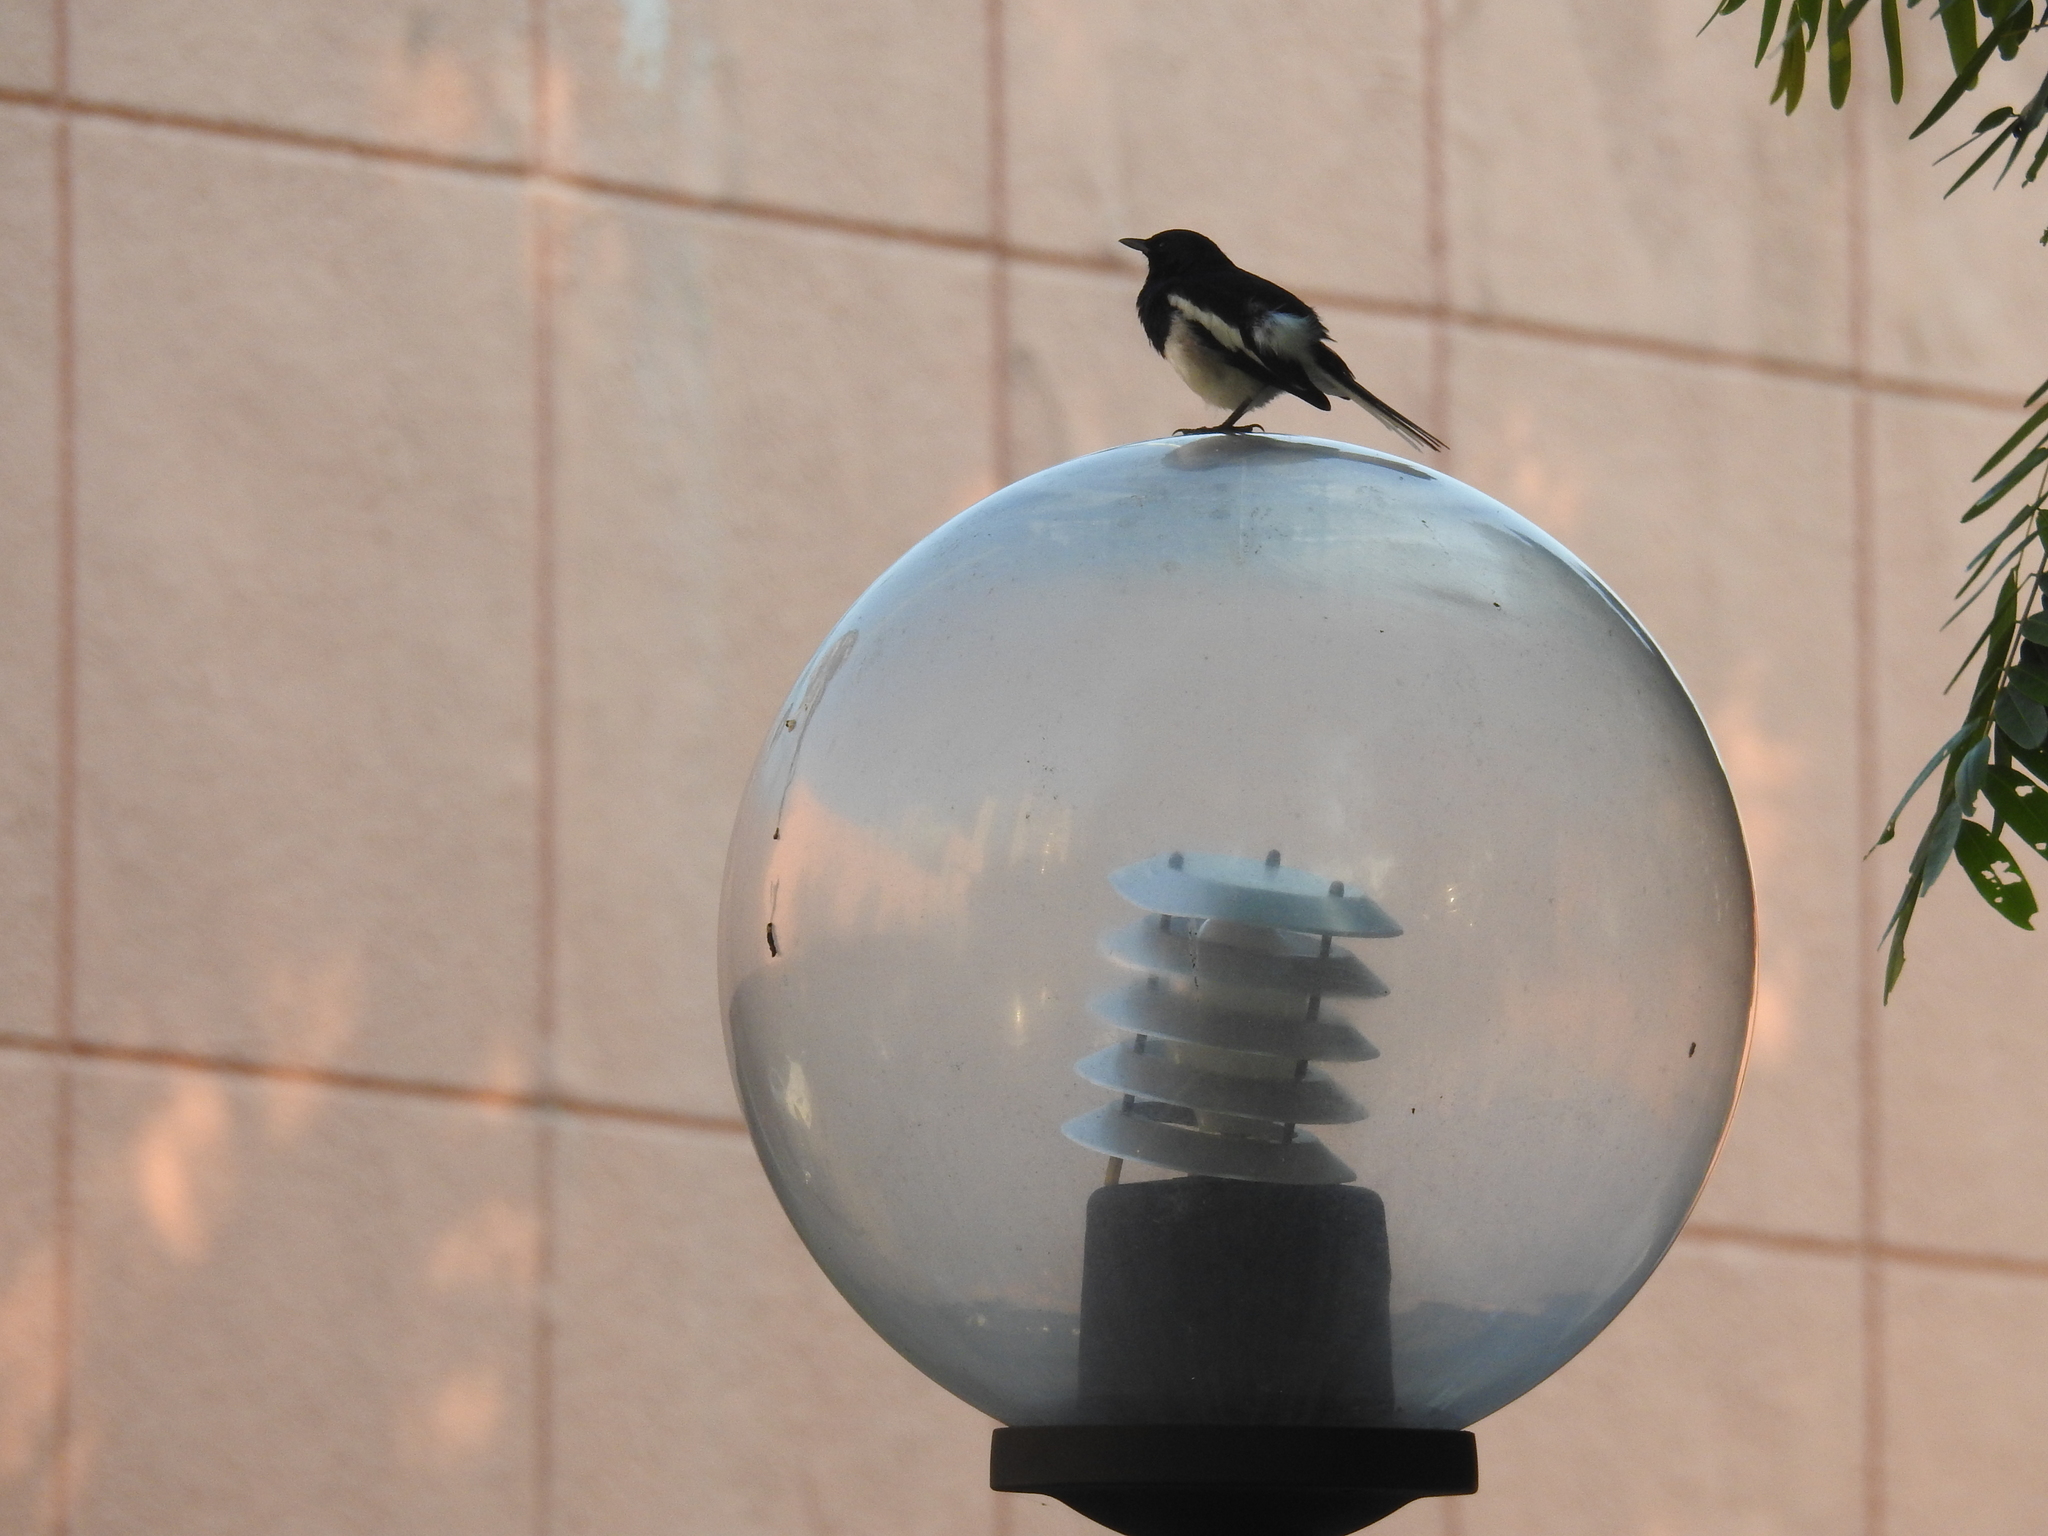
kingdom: Animalia
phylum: Chordata
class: Aves
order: Passeriformes
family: Muscicapidae
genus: Copsychus
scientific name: Copsychus saularis
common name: Oriental magpie-robin
